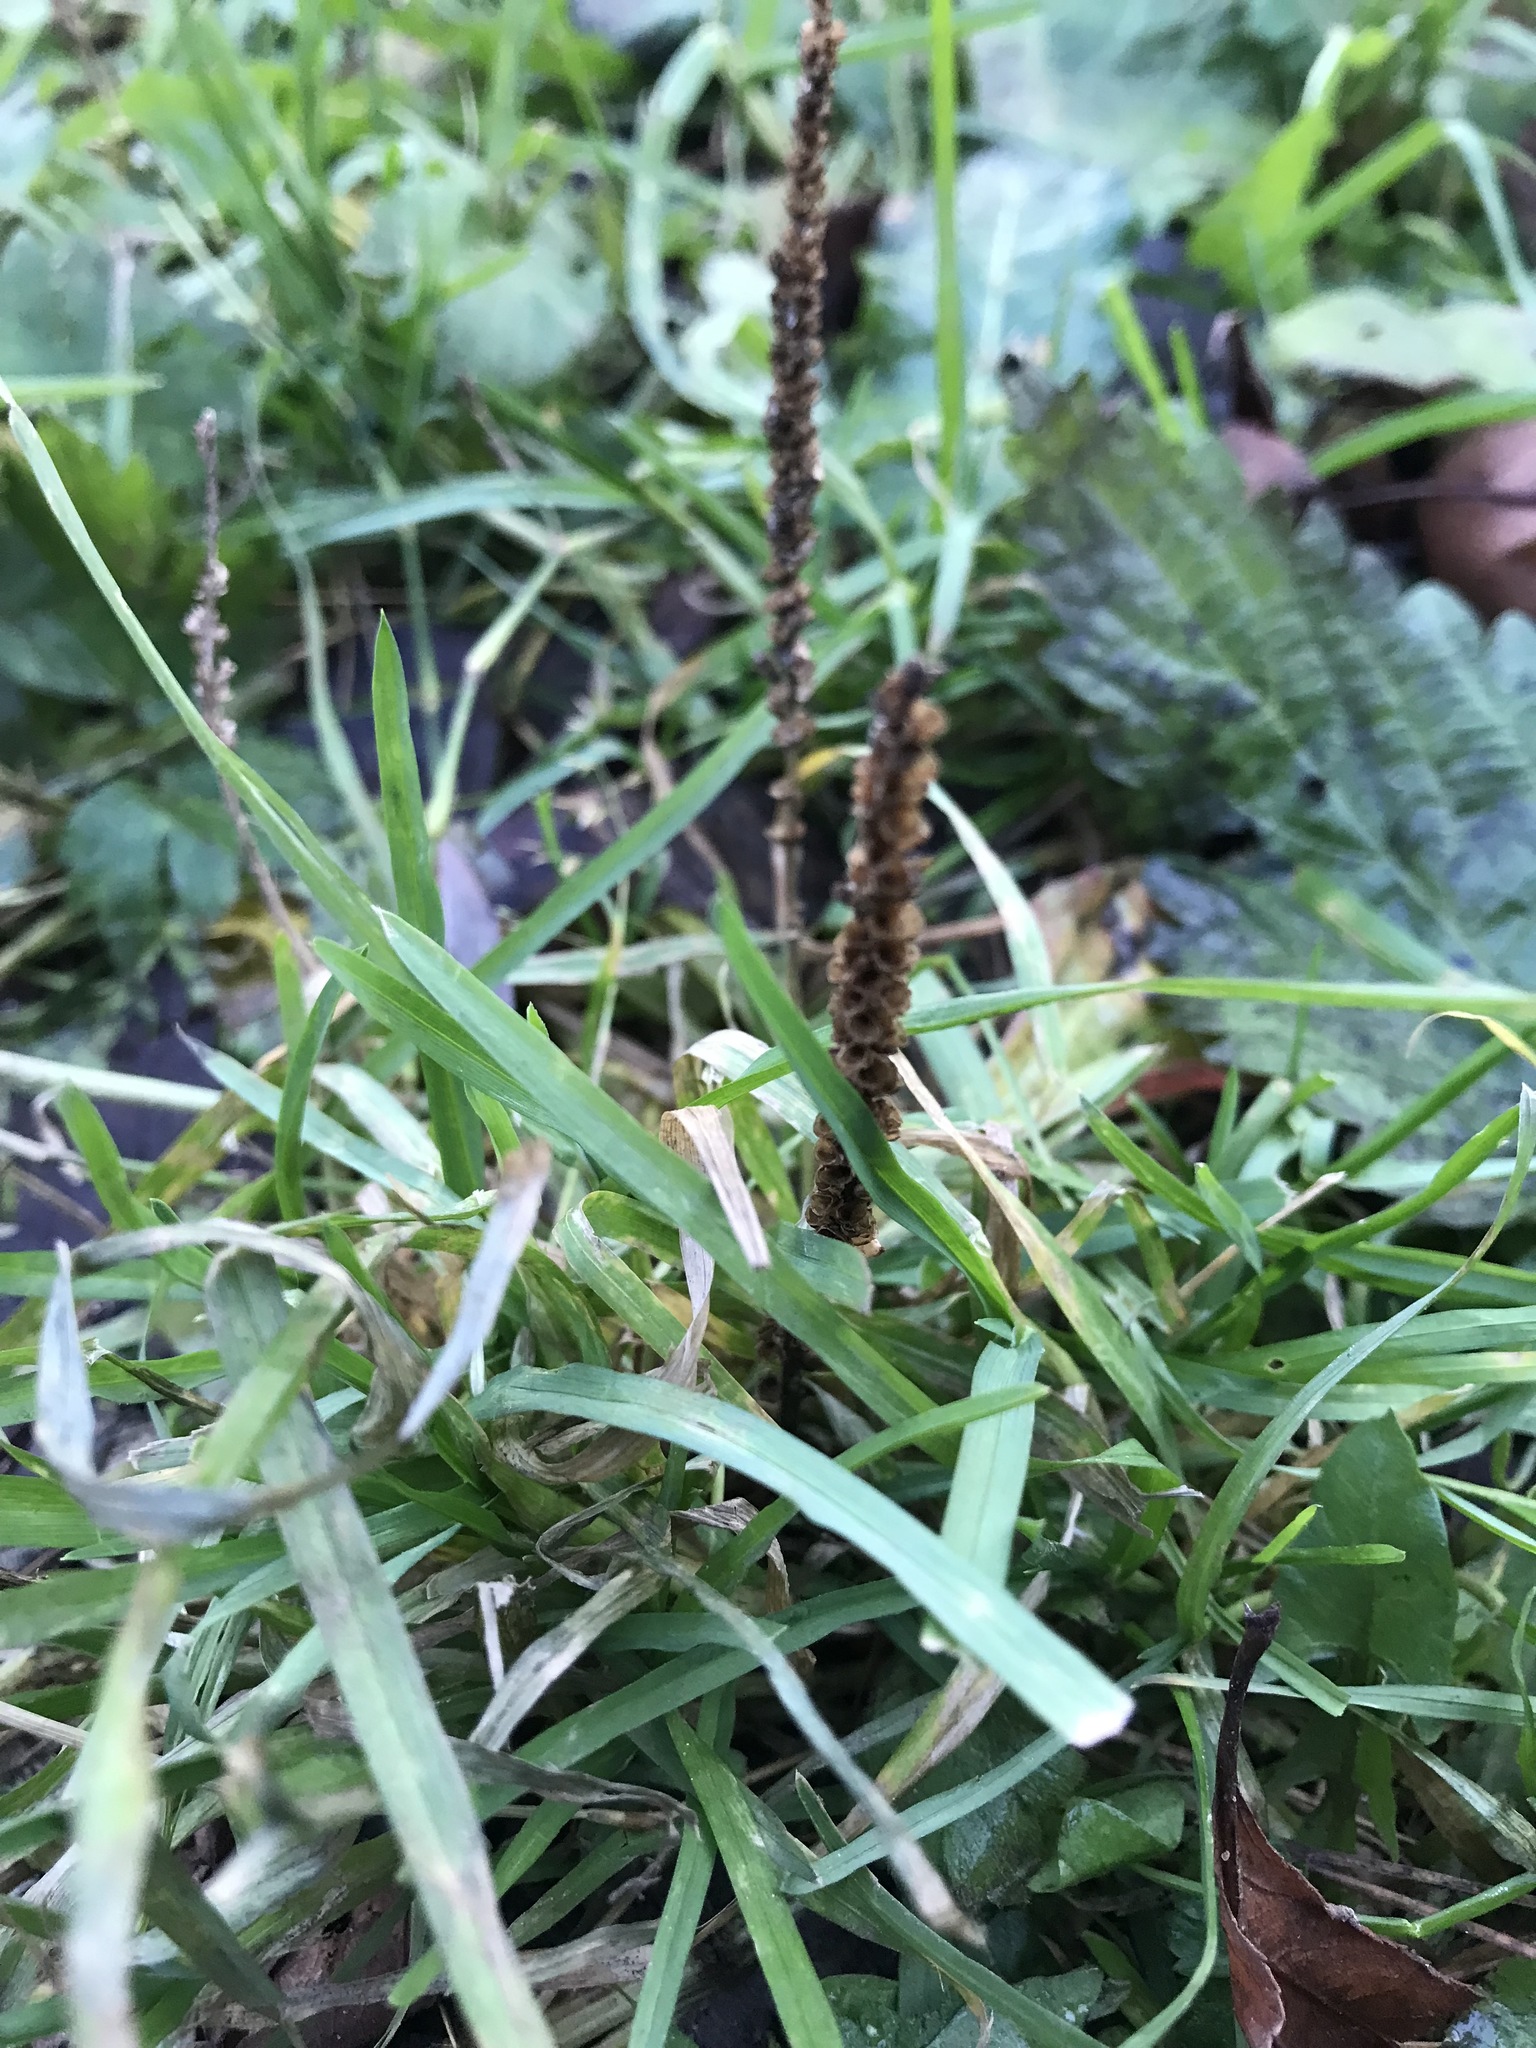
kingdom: Plantae
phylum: Tracheophyta
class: Magnoliopsida
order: Lamiales
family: Plantaginaceae
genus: Plantago
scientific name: Plantago major
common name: Common plantain
